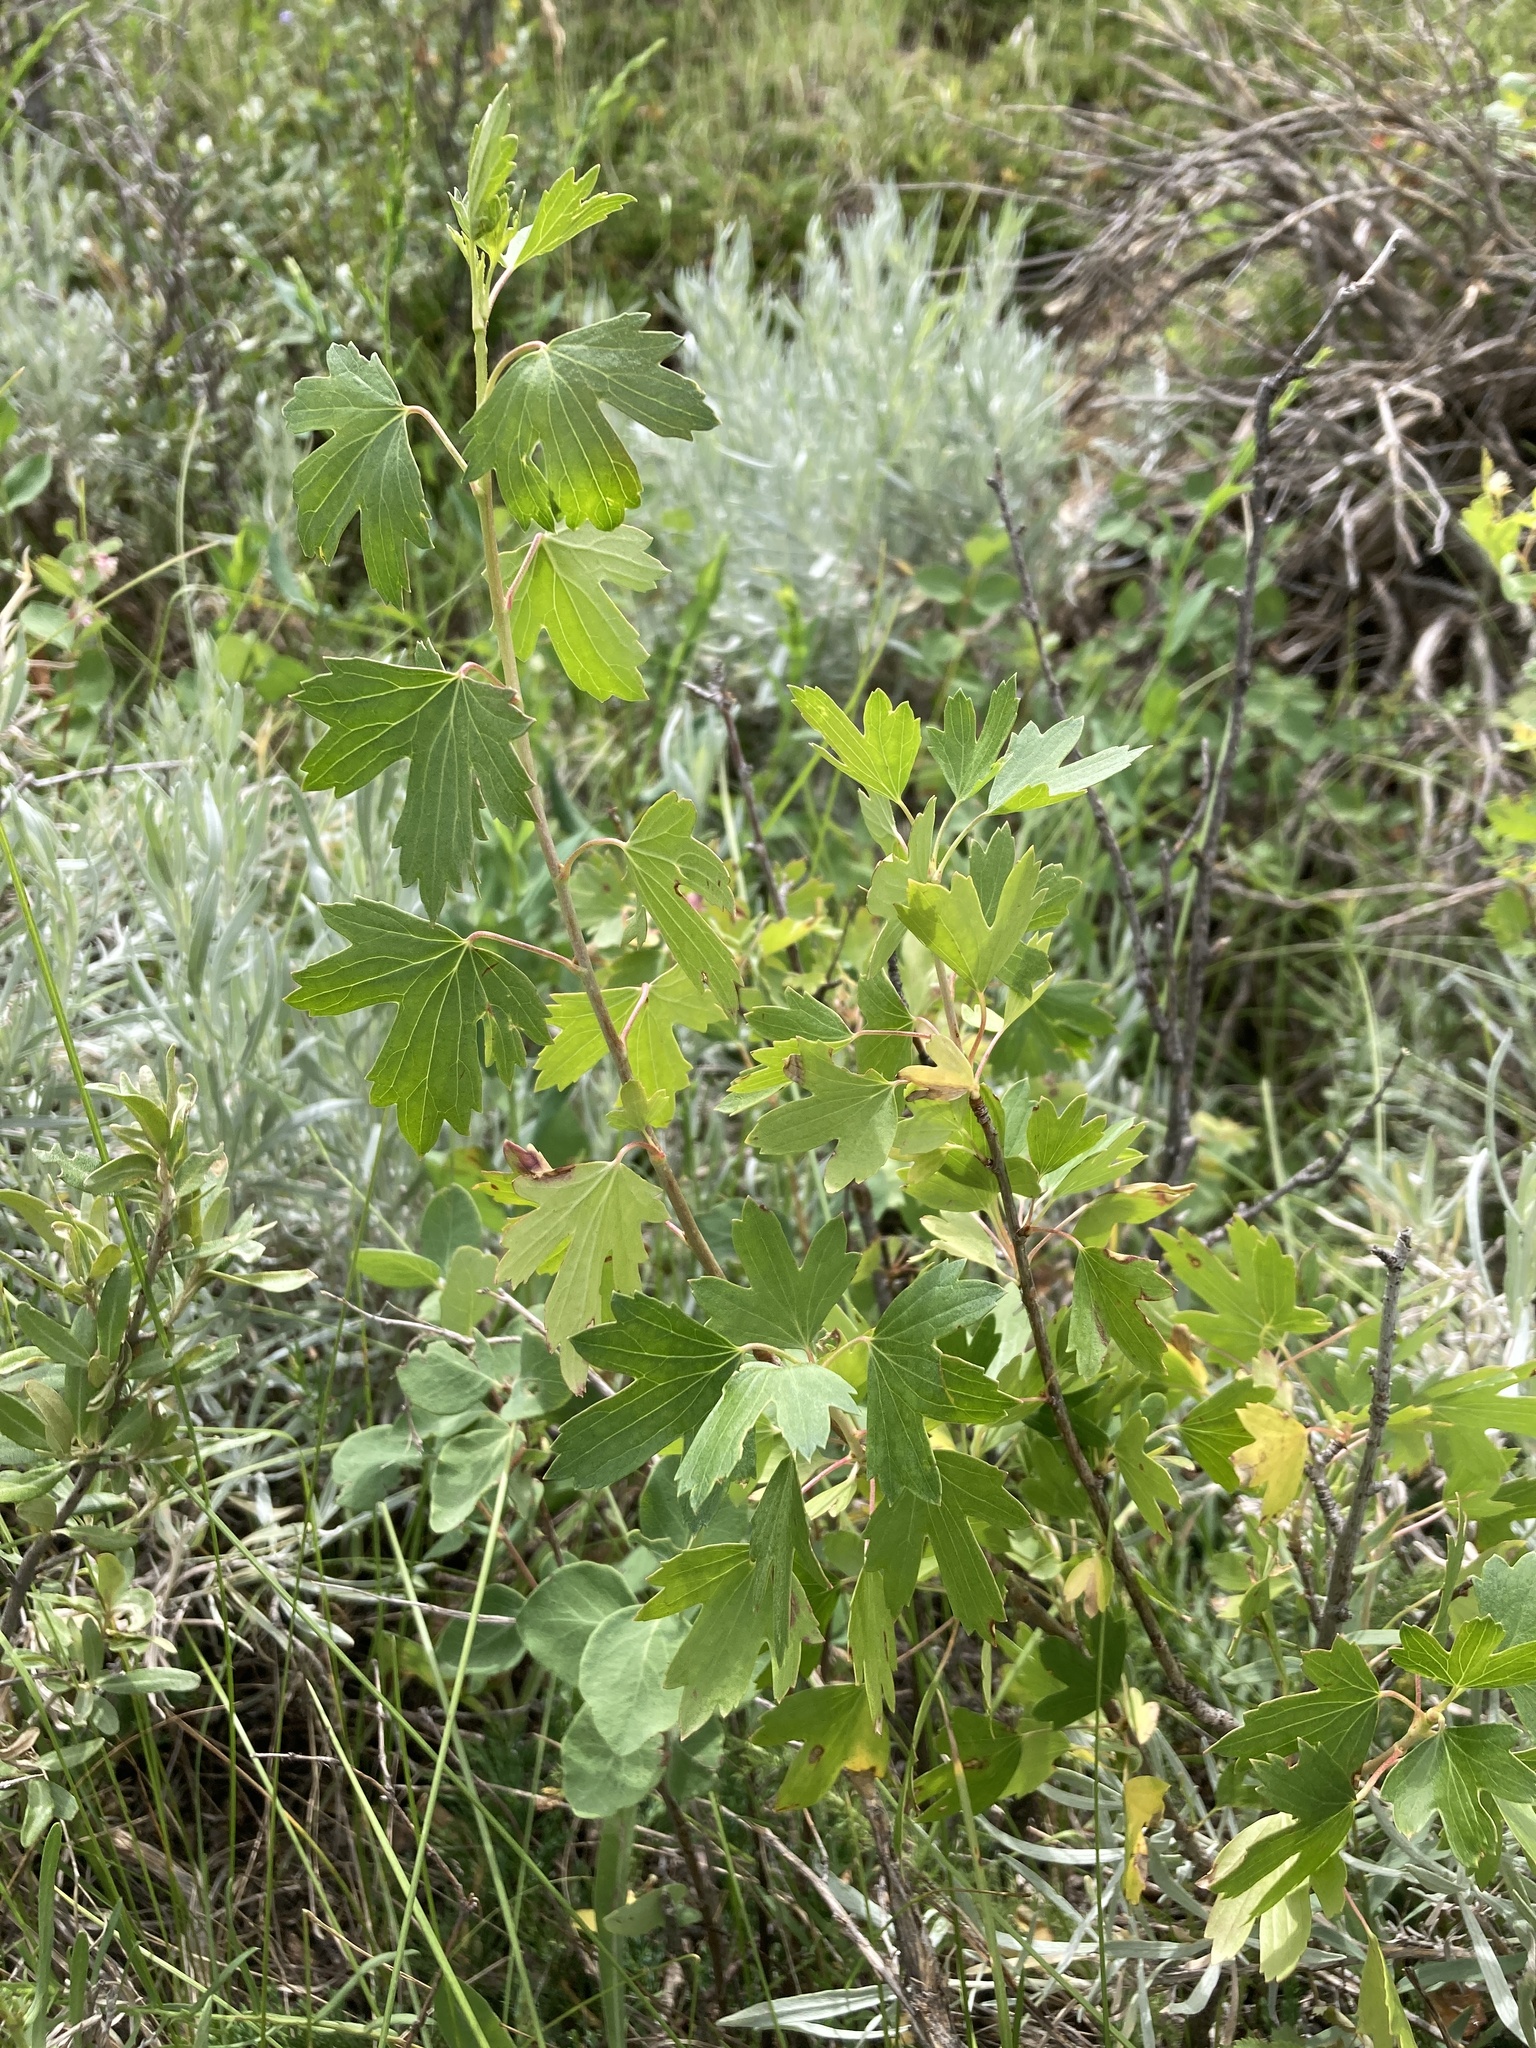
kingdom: Plantae
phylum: Tracheophyta
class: Magnoliopsida
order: Saxifragales
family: Grossulariaceae
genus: Ribes
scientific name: Ribes aureum
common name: Golden currant
